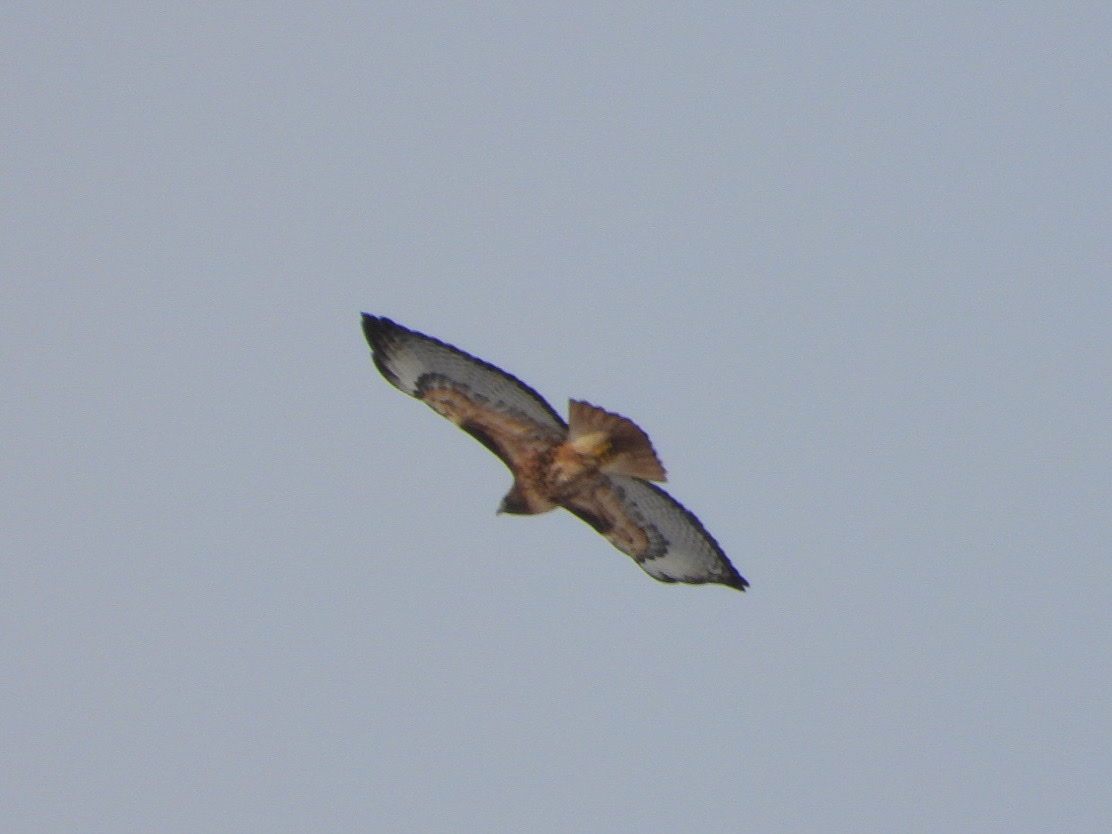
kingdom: Animalia
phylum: Chordata
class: Aves
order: Accipitriformes
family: Accipitridae
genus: Buteo
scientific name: Buteo jamaicensis
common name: Red-tailed hawk
